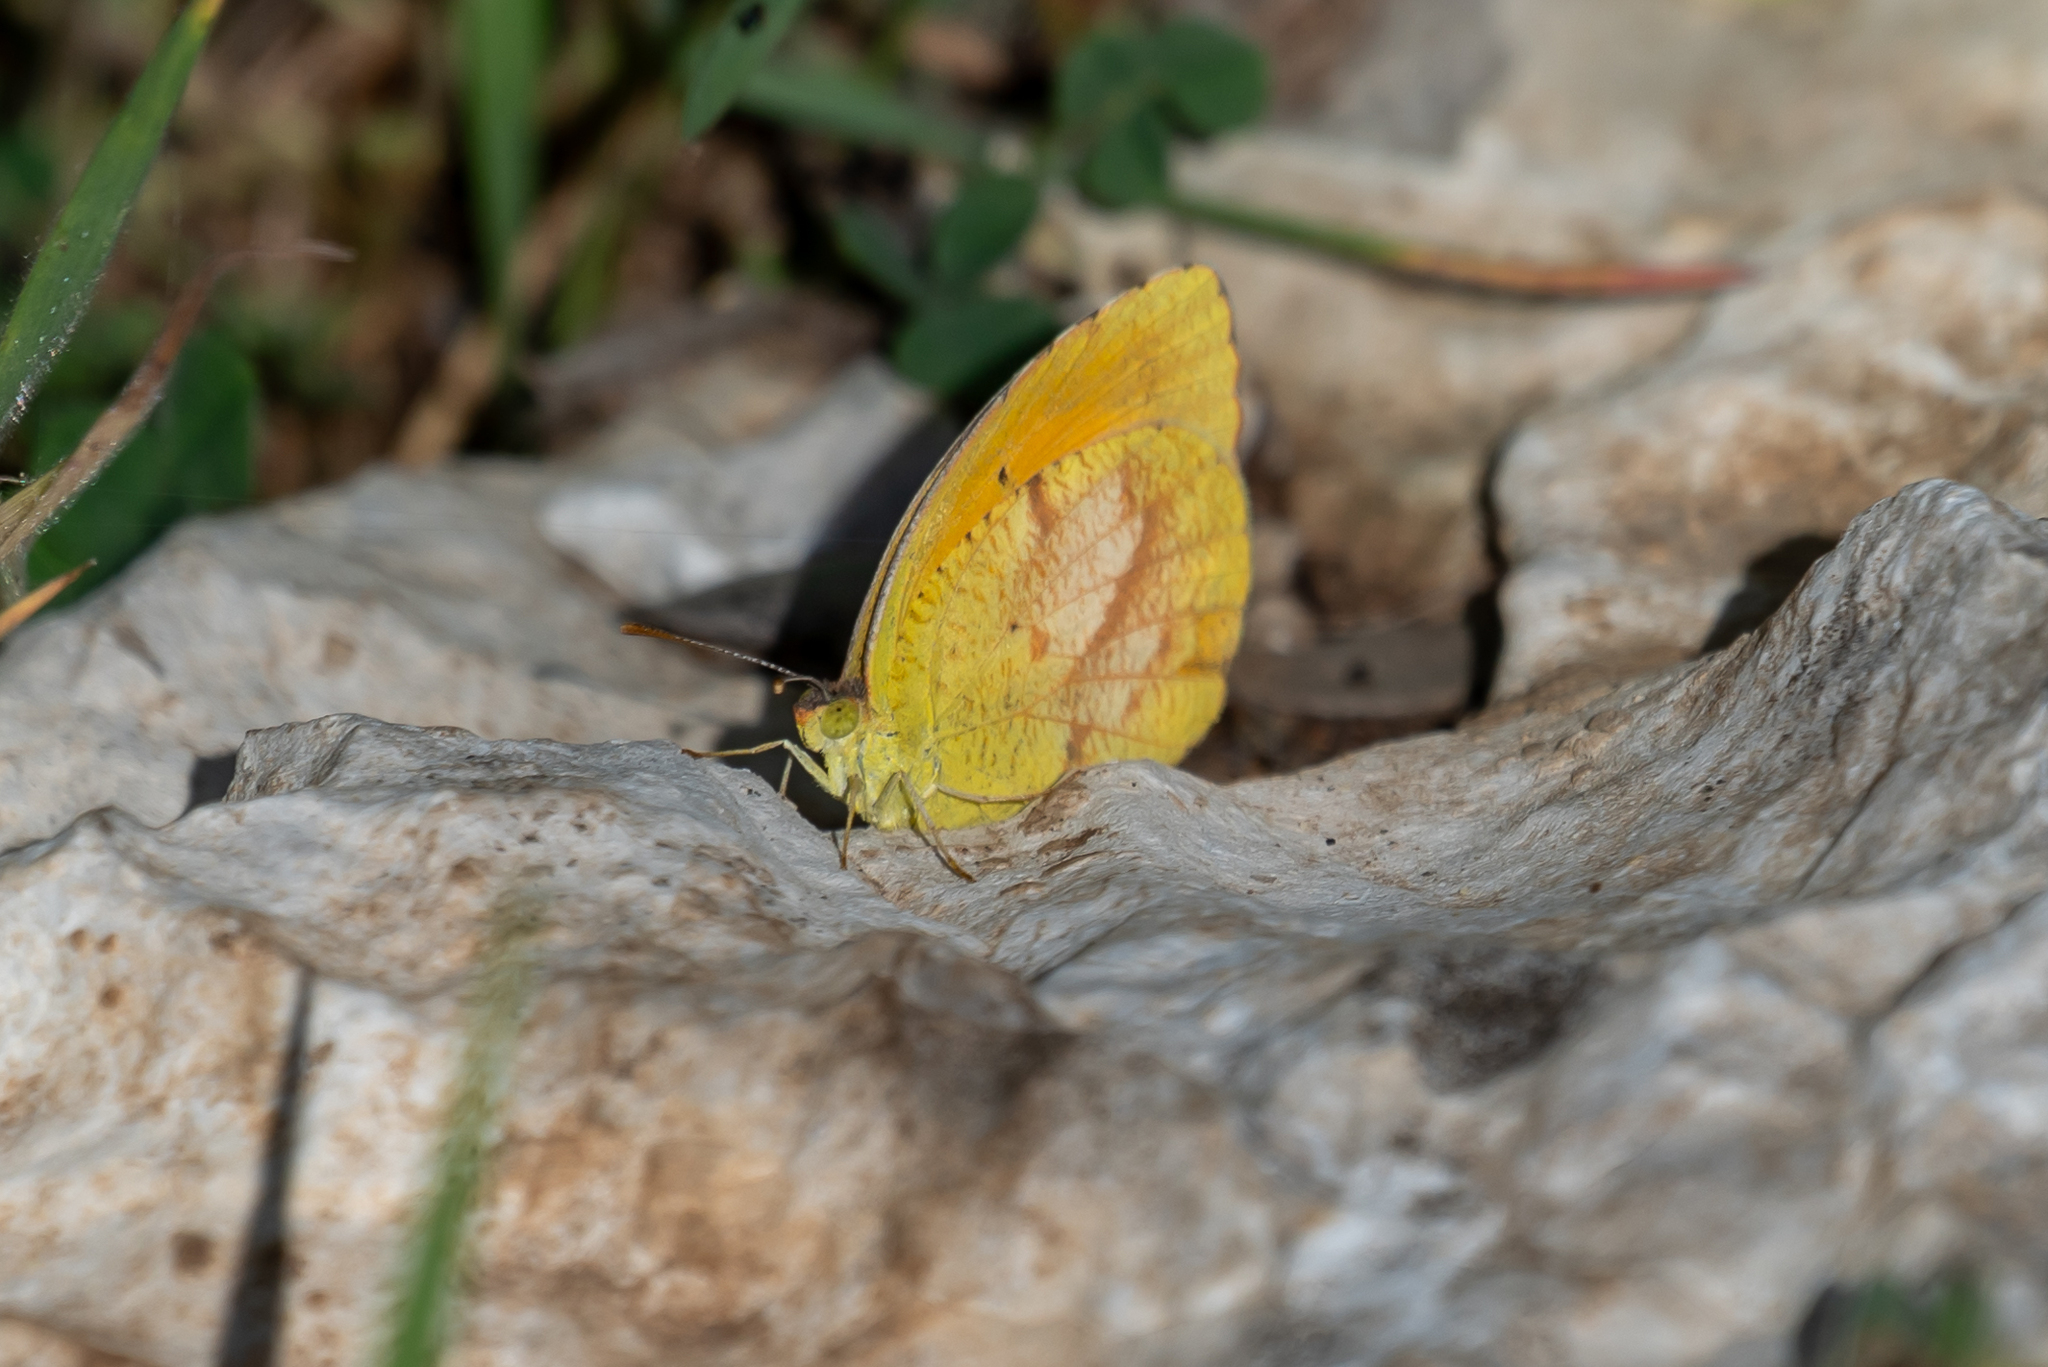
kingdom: Animalia
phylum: Arthropoda
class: Insecta
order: Lepidoptera
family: Pieridae
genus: Abaeis
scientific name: Abaeis nicippe
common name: Sleepy orange
